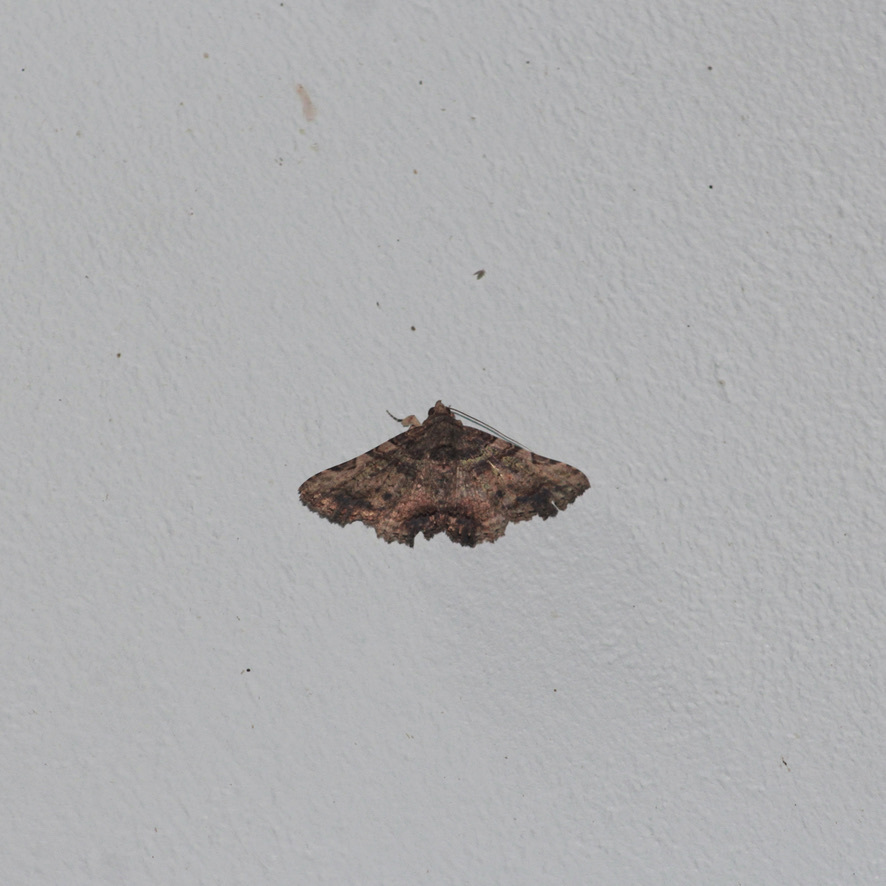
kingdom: Animalia
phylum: Arthropoda
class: Insecta
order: Lepidoptera
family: Erebidae
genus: Metria
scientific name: Metria celia
